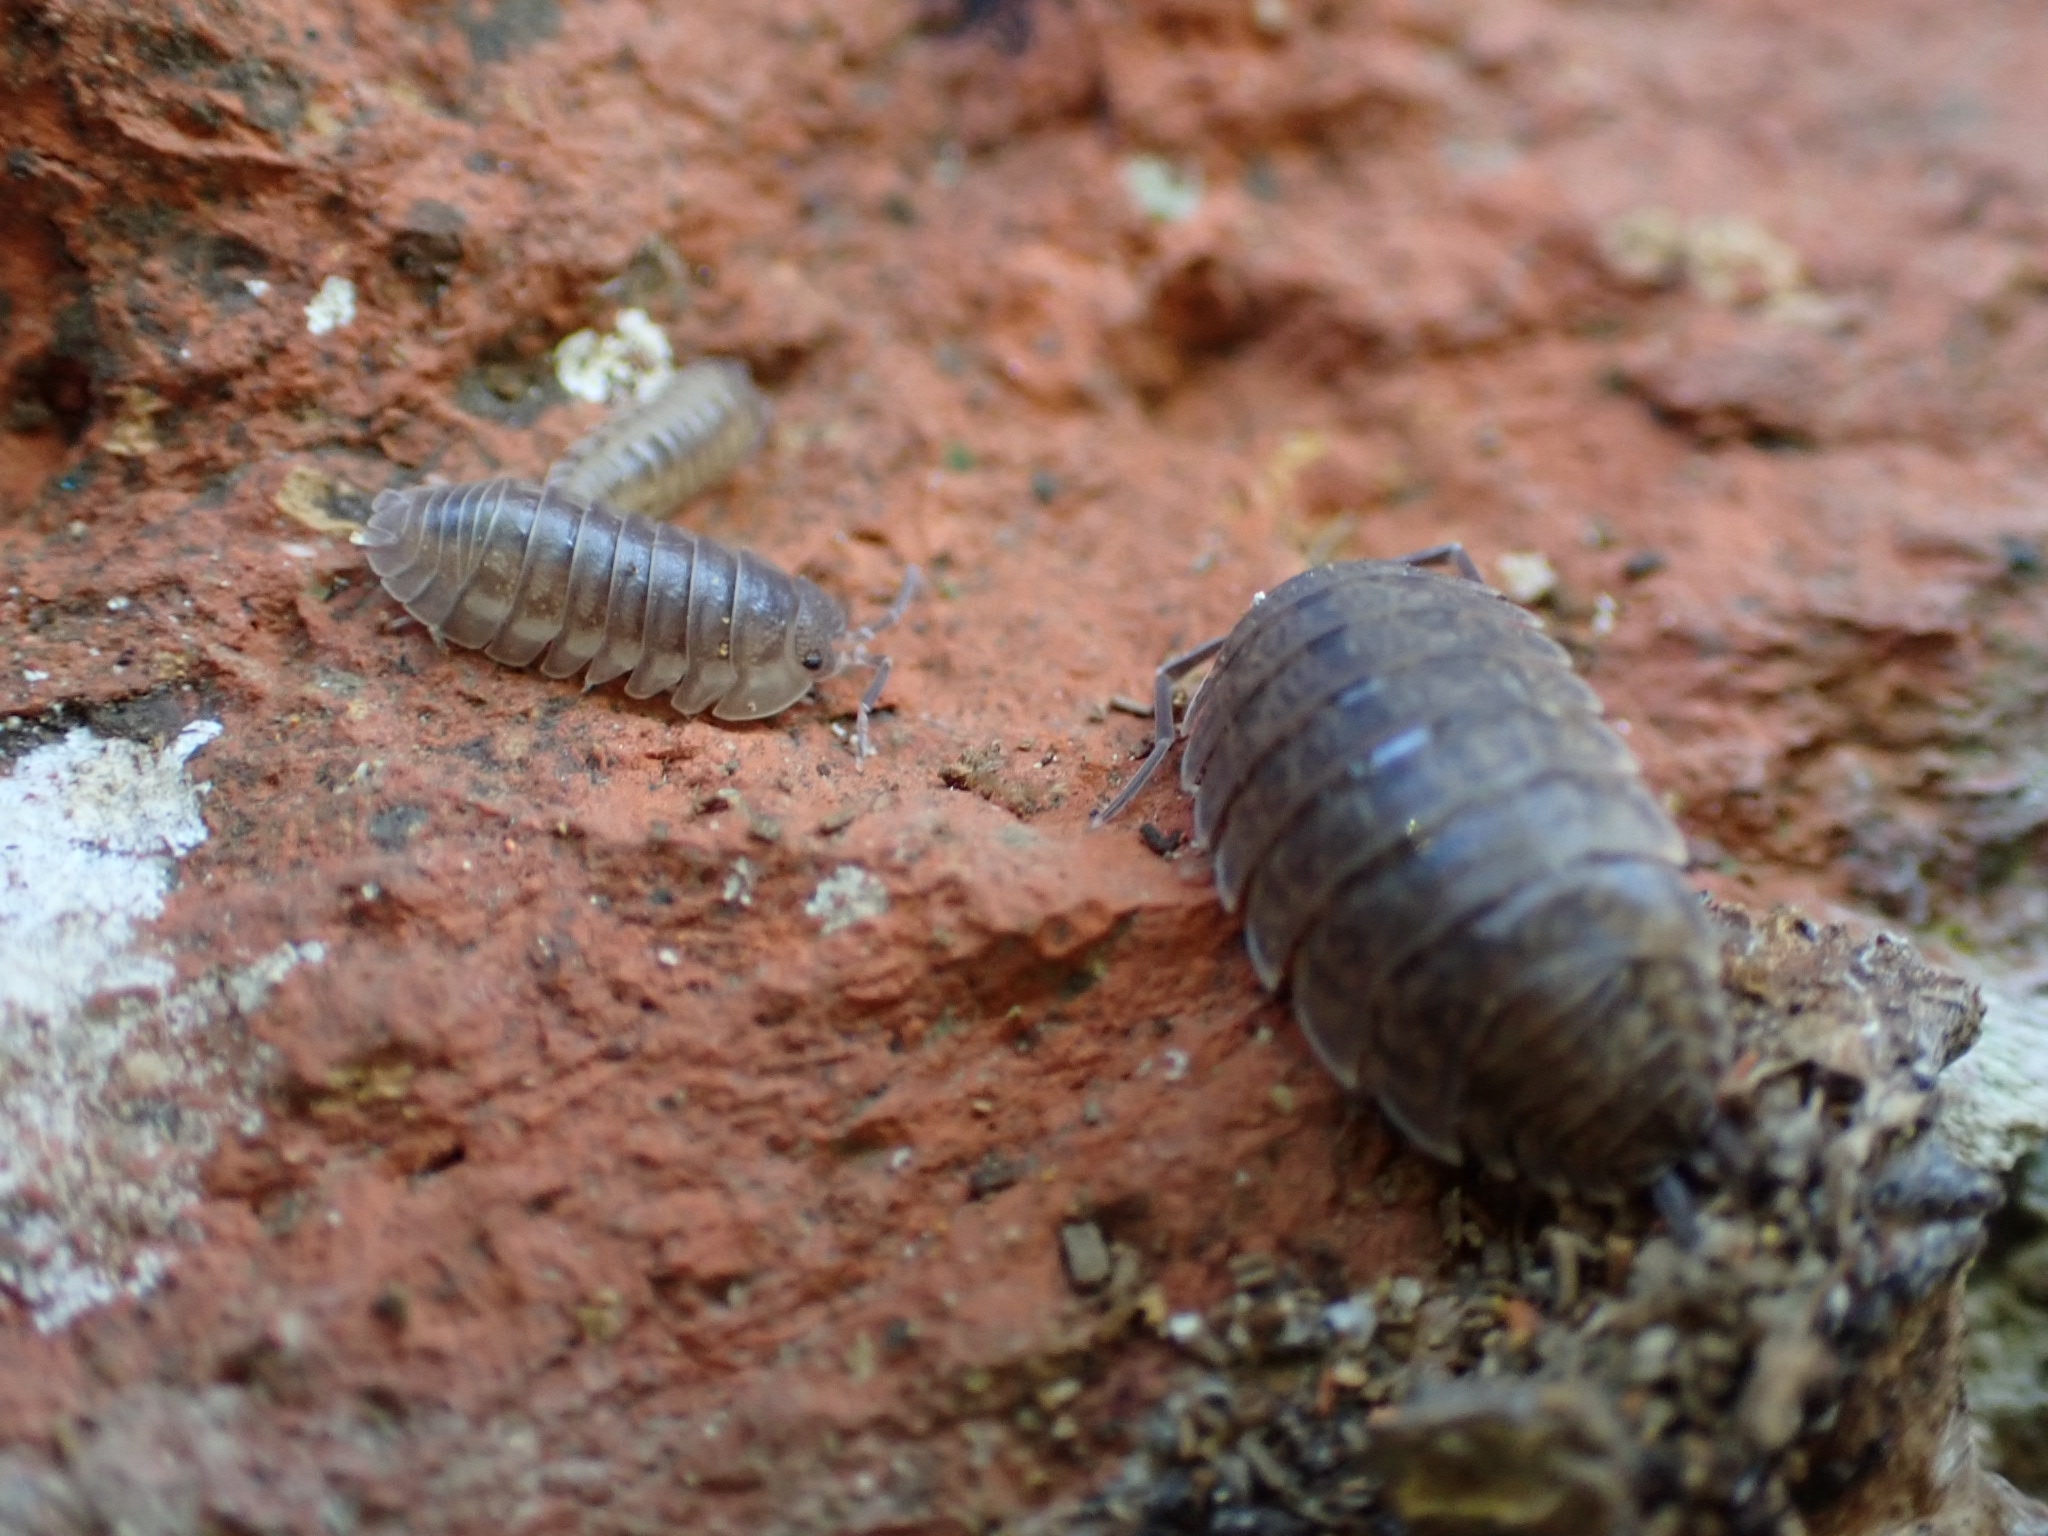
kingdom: Animalia
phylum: Arthropoda
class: Malacostraca
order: Isopoda
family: Armadillidiidae
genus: Armadillidium
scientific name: Armadillidium nasatum
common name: Isopod
